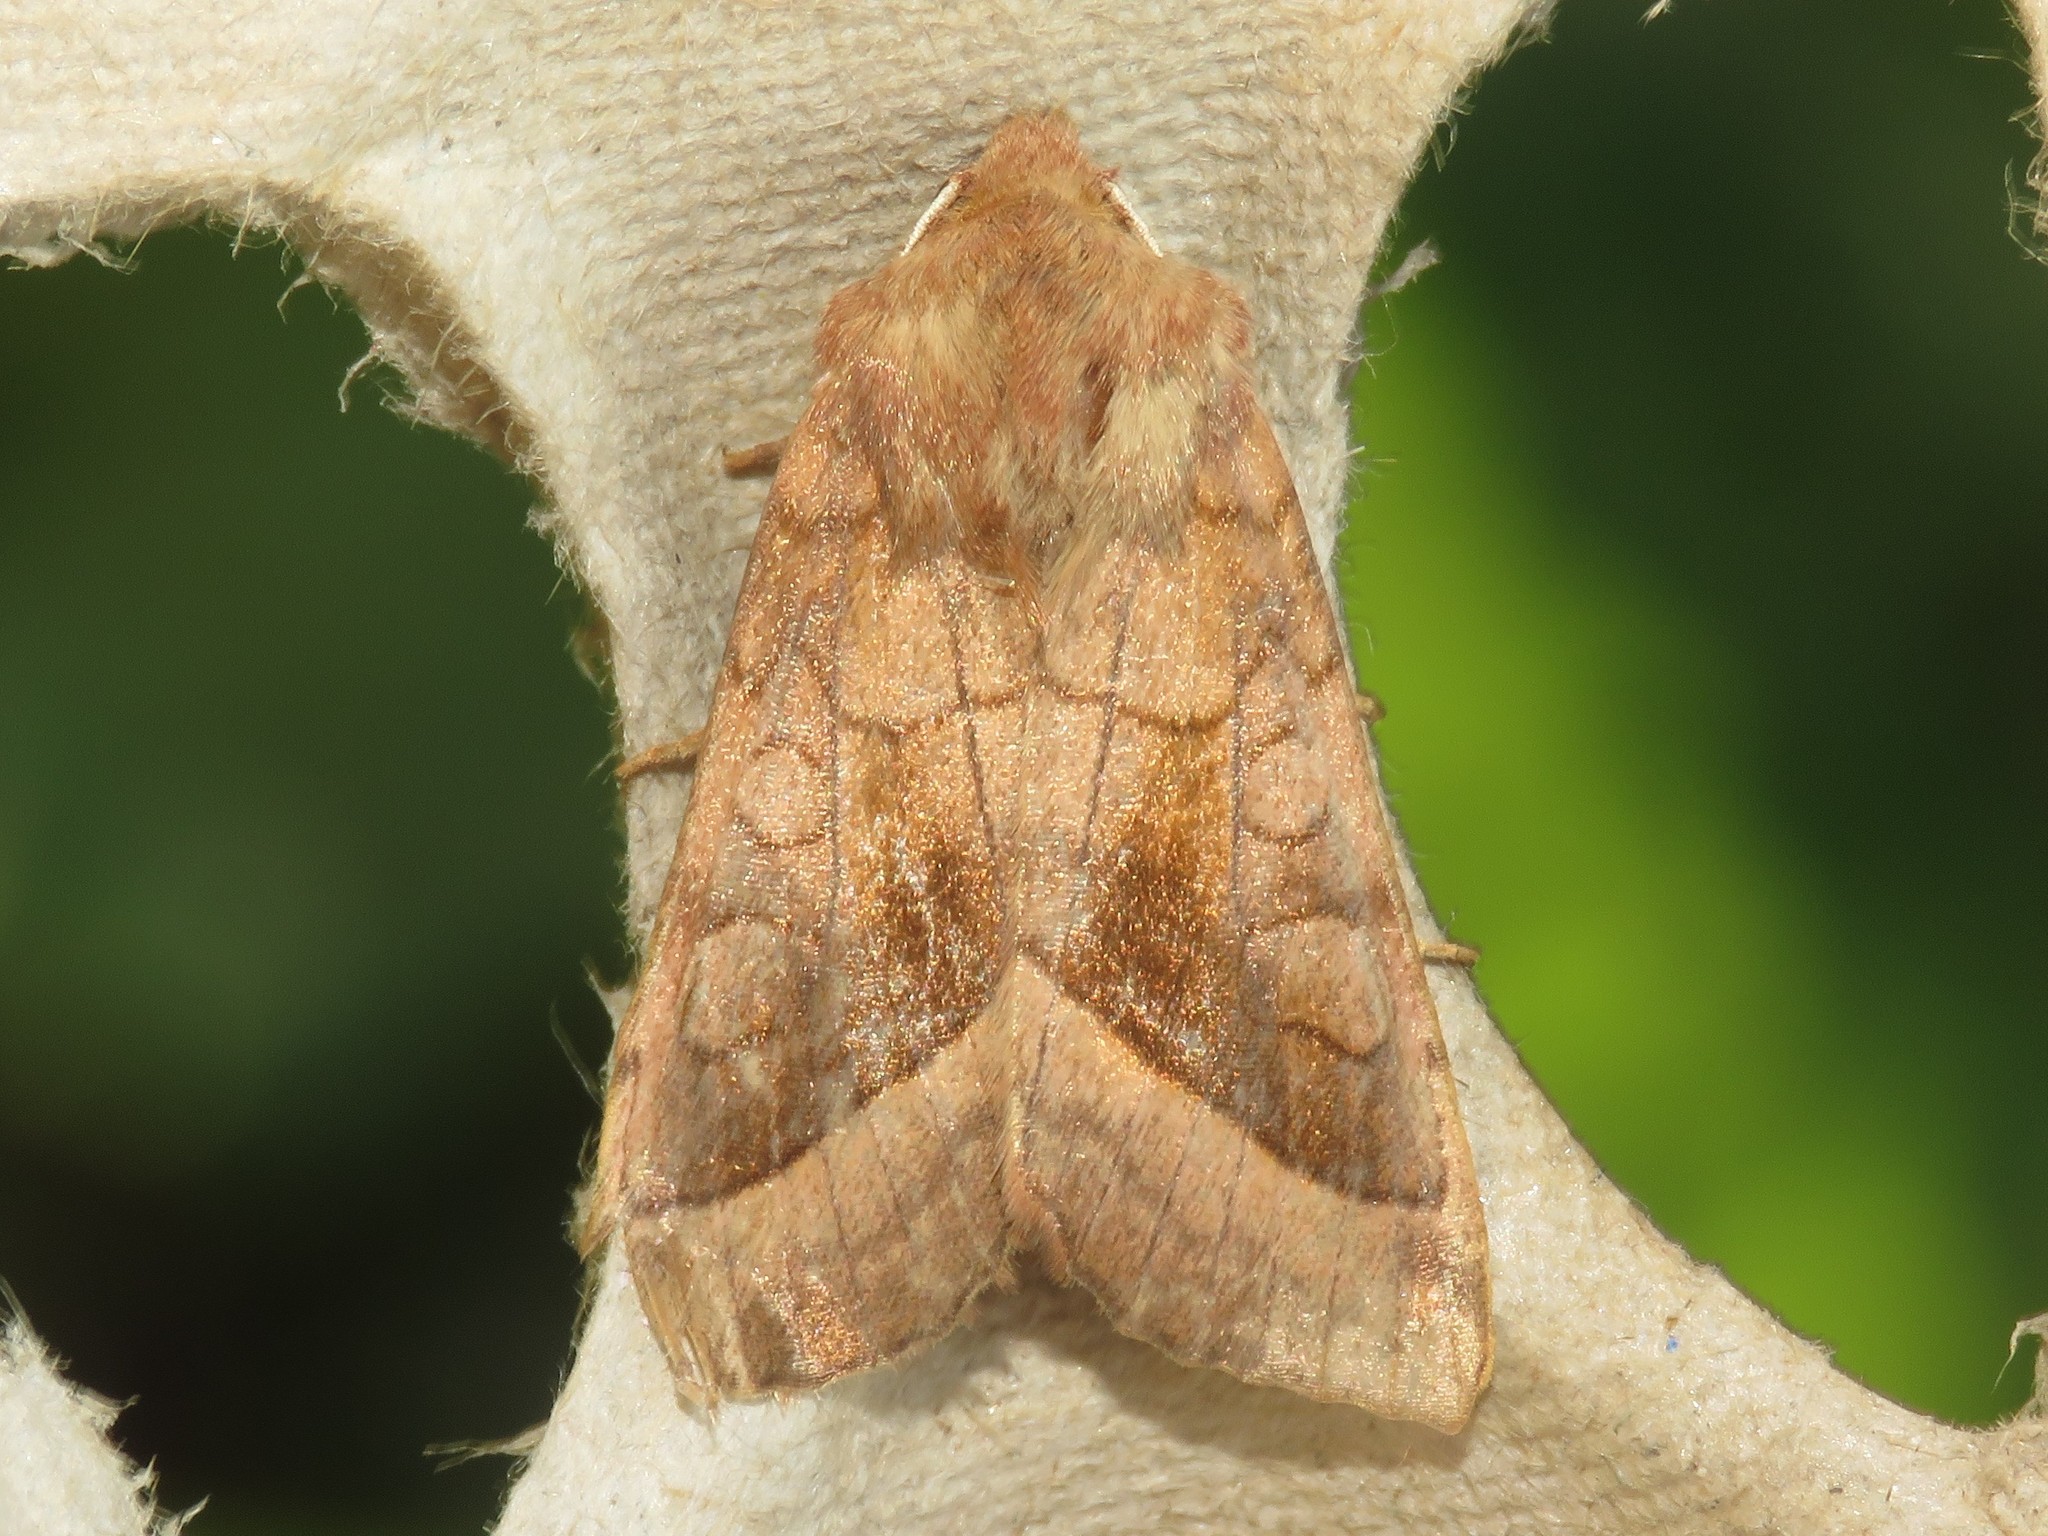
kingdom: Animalia
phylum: Arthropoda
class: Insecta
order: Lepidoptera
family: Noctuidae
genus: Hydraecia
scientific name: Hydraecia micacea
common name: Rosy rustic
